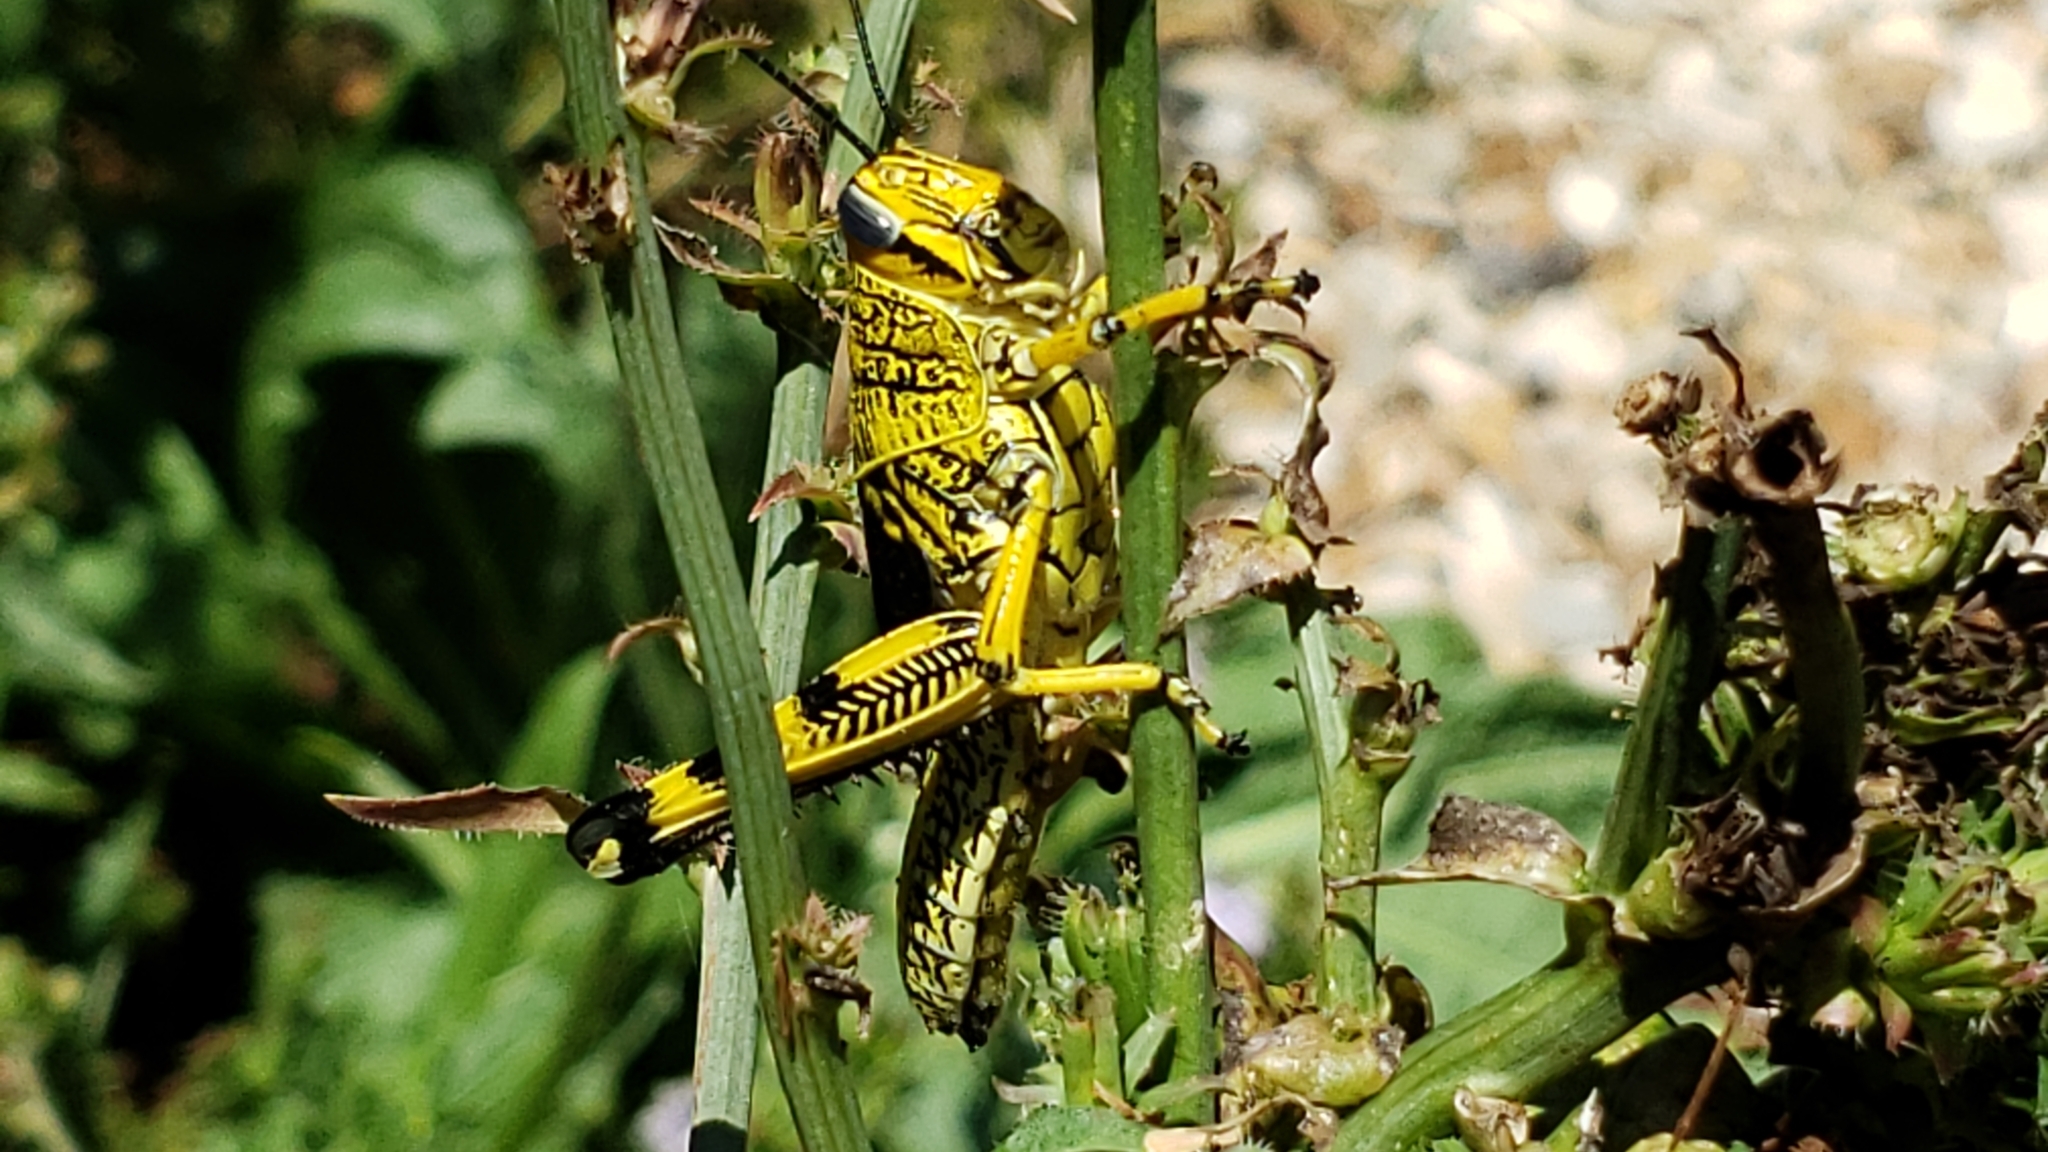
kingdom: Animalia
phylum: Arthropoda
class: Insecta
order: Orthoptera
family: Acrididae
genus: Schistocerca
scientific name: Schistocerca lineata
